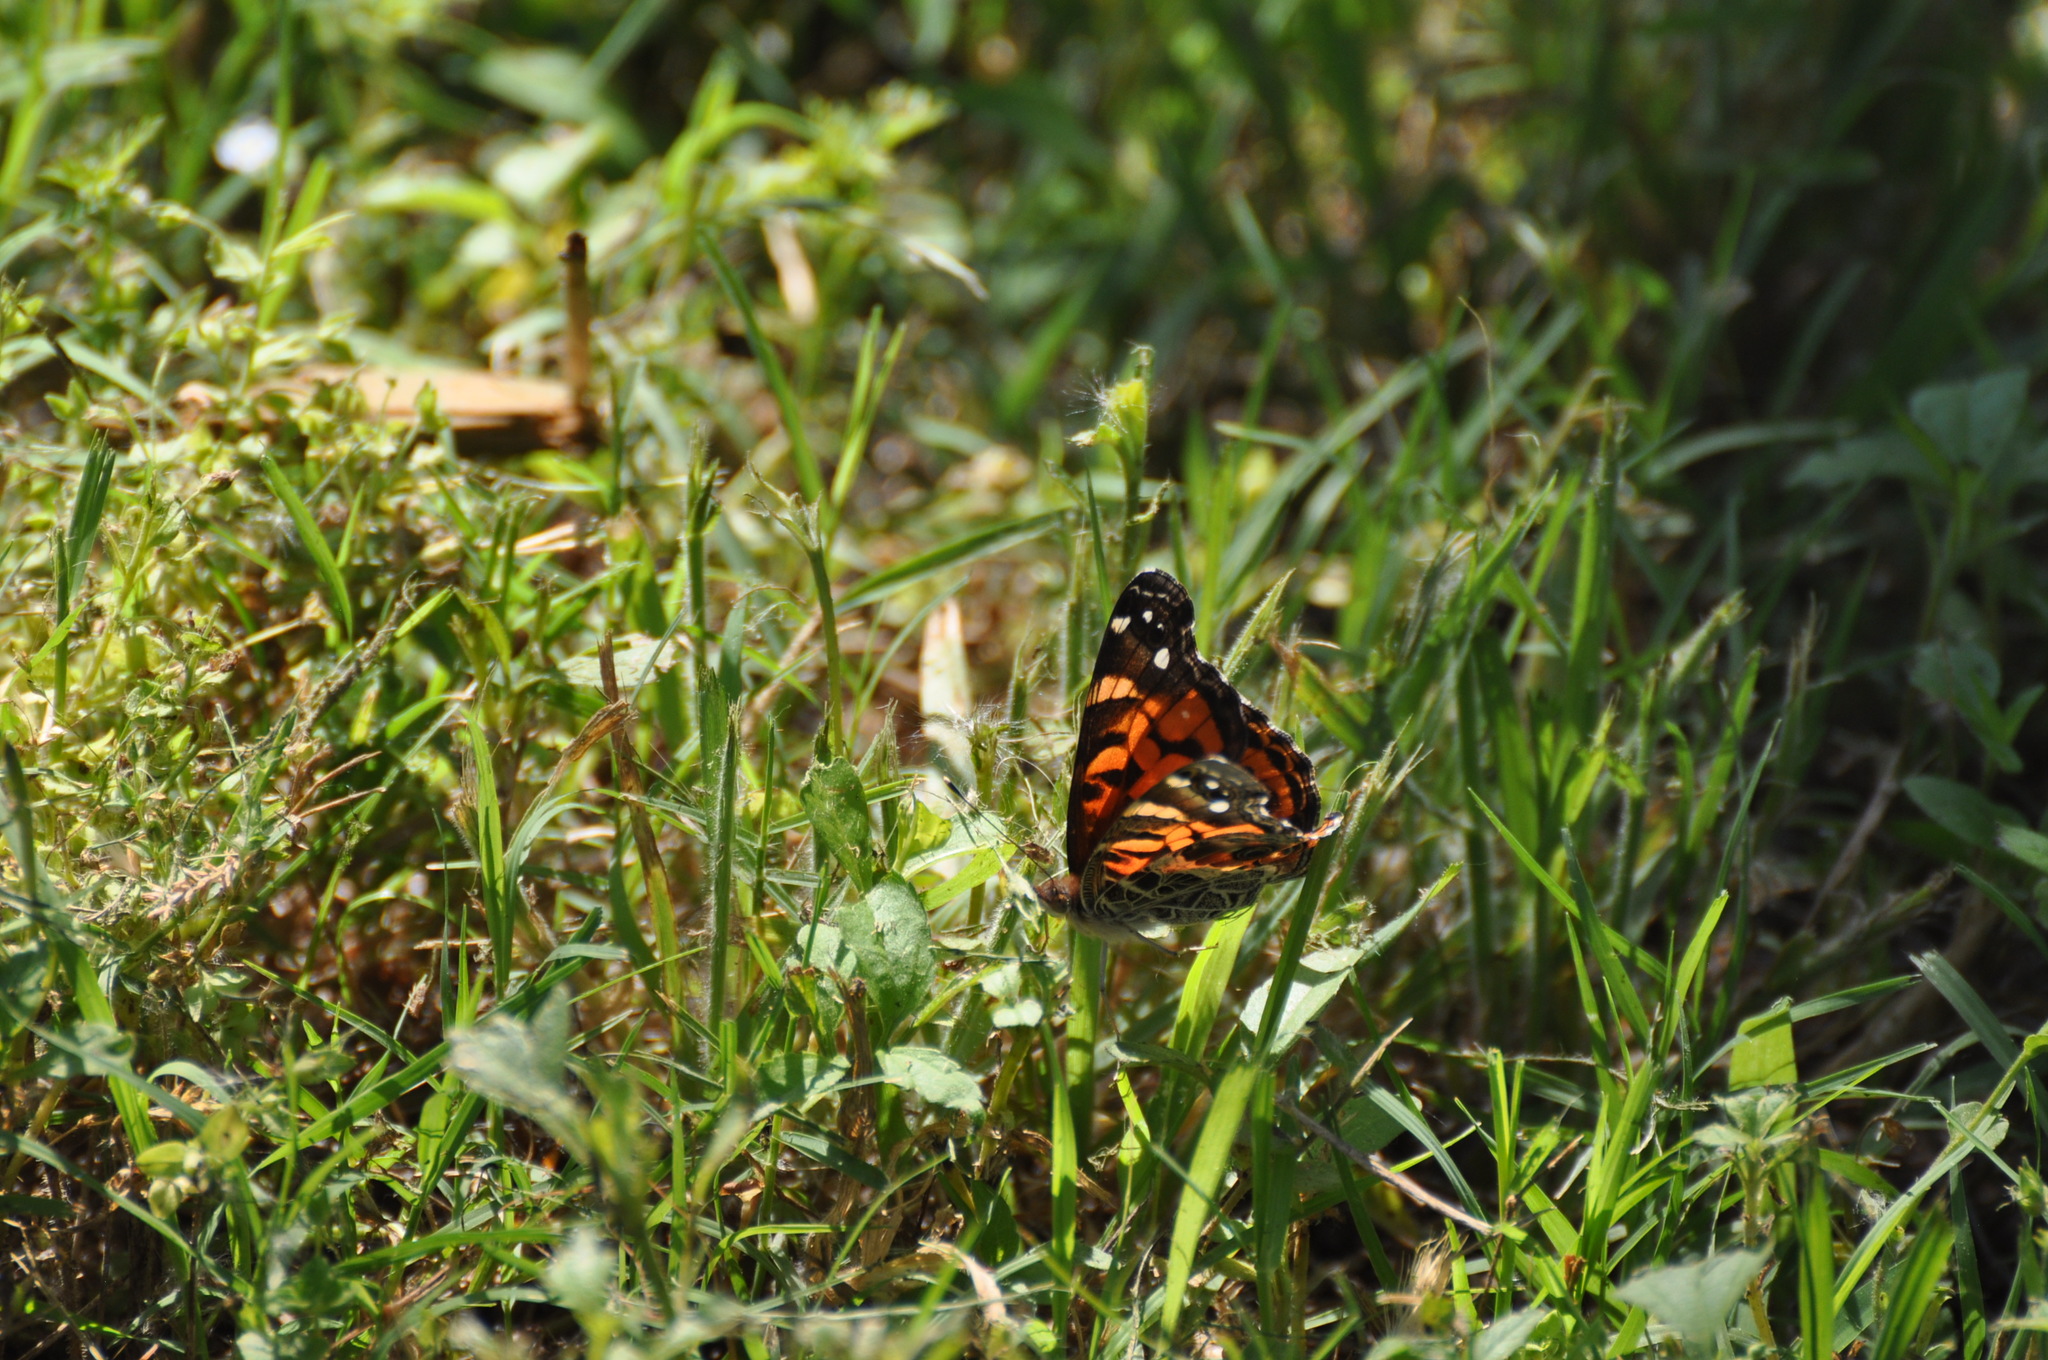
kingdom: Animalia
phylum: Arthropoda
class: Insecta
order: Lepidoptera
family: Nymphalidae
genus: Vanessa
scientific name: Vanessa virginiensis
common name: American lady
